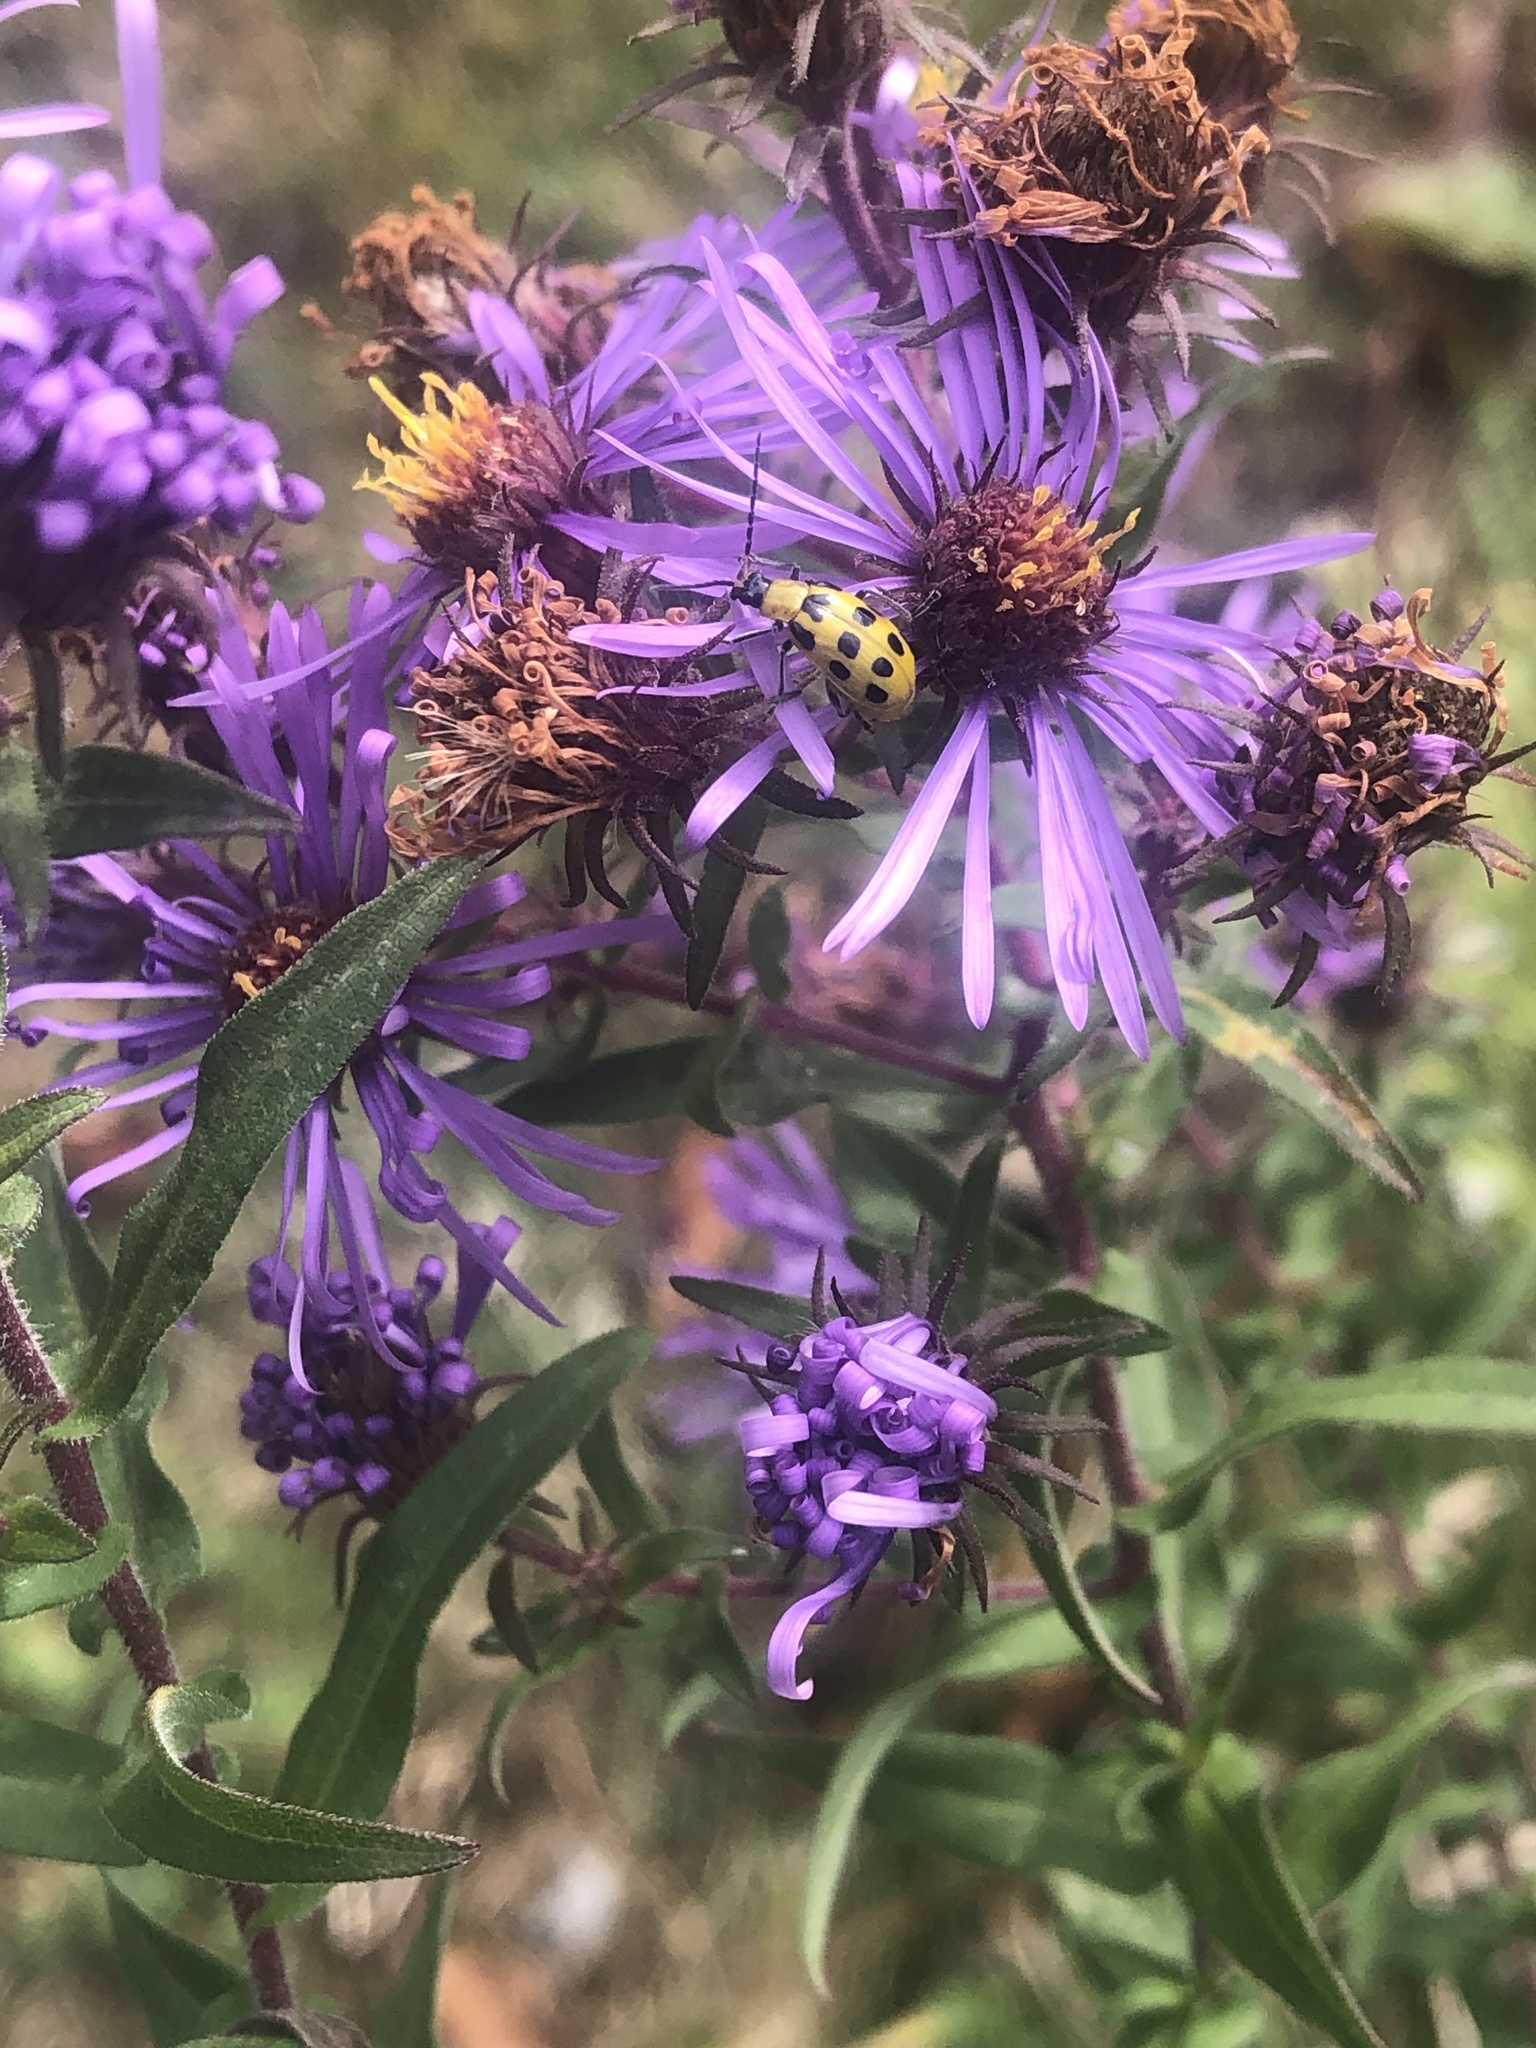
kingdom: Animalia
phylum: Arthropoda
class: Insecta
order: Coleoptera
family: Chrysomelidae
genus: Diabrotica
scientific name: Diabrotica undecimpunctata
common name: Spotted cucumber beetle
